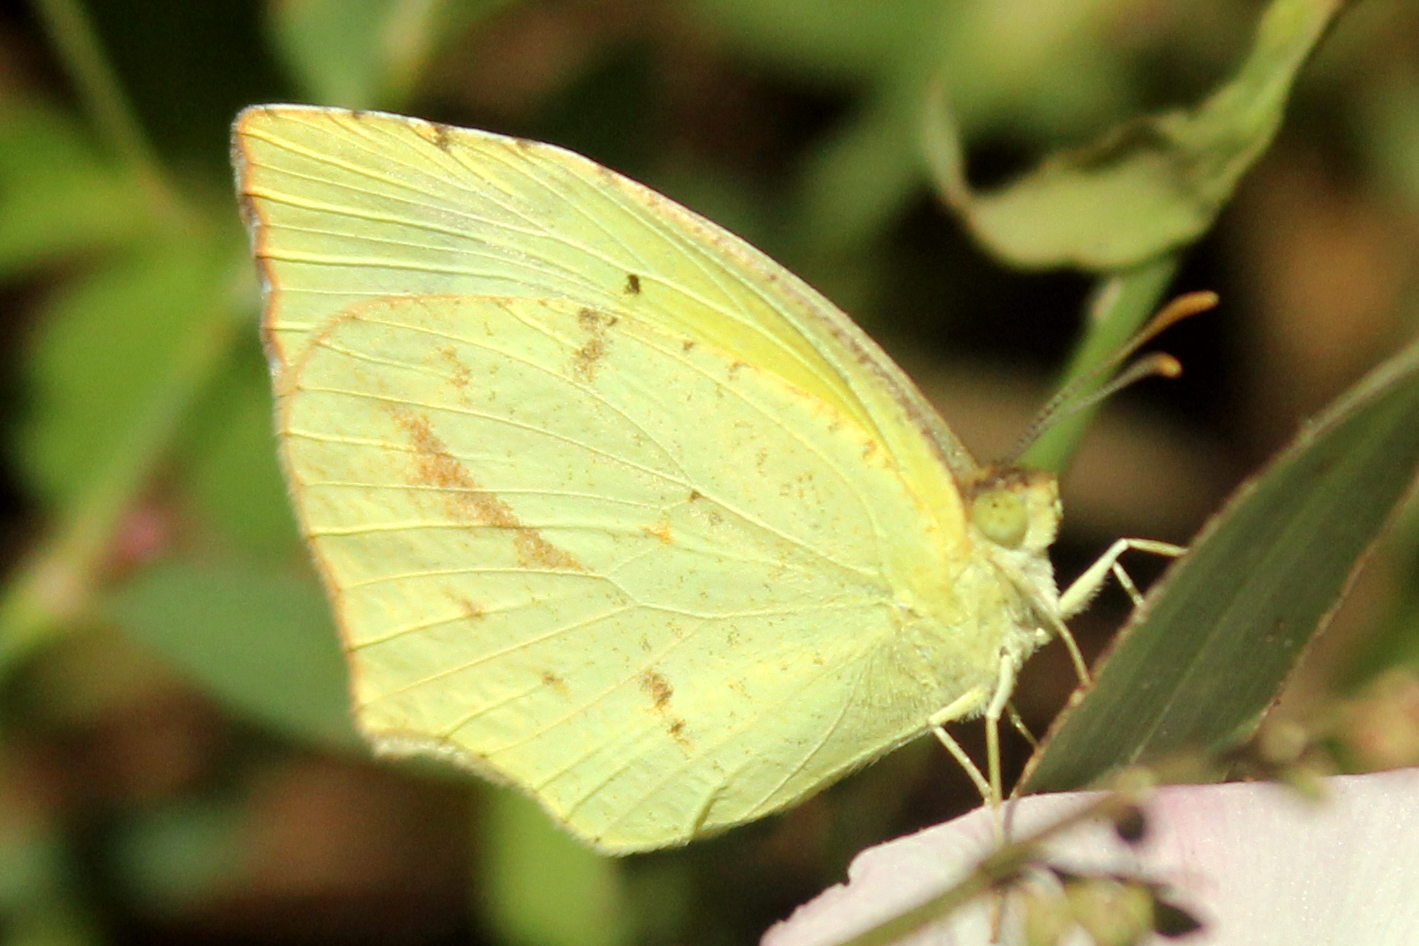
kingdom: Animalia
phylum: Arthropoda
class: Insecta
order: Lepidoptera
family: Pieridae
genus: Abaeis
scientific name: Abaeis mexicana
